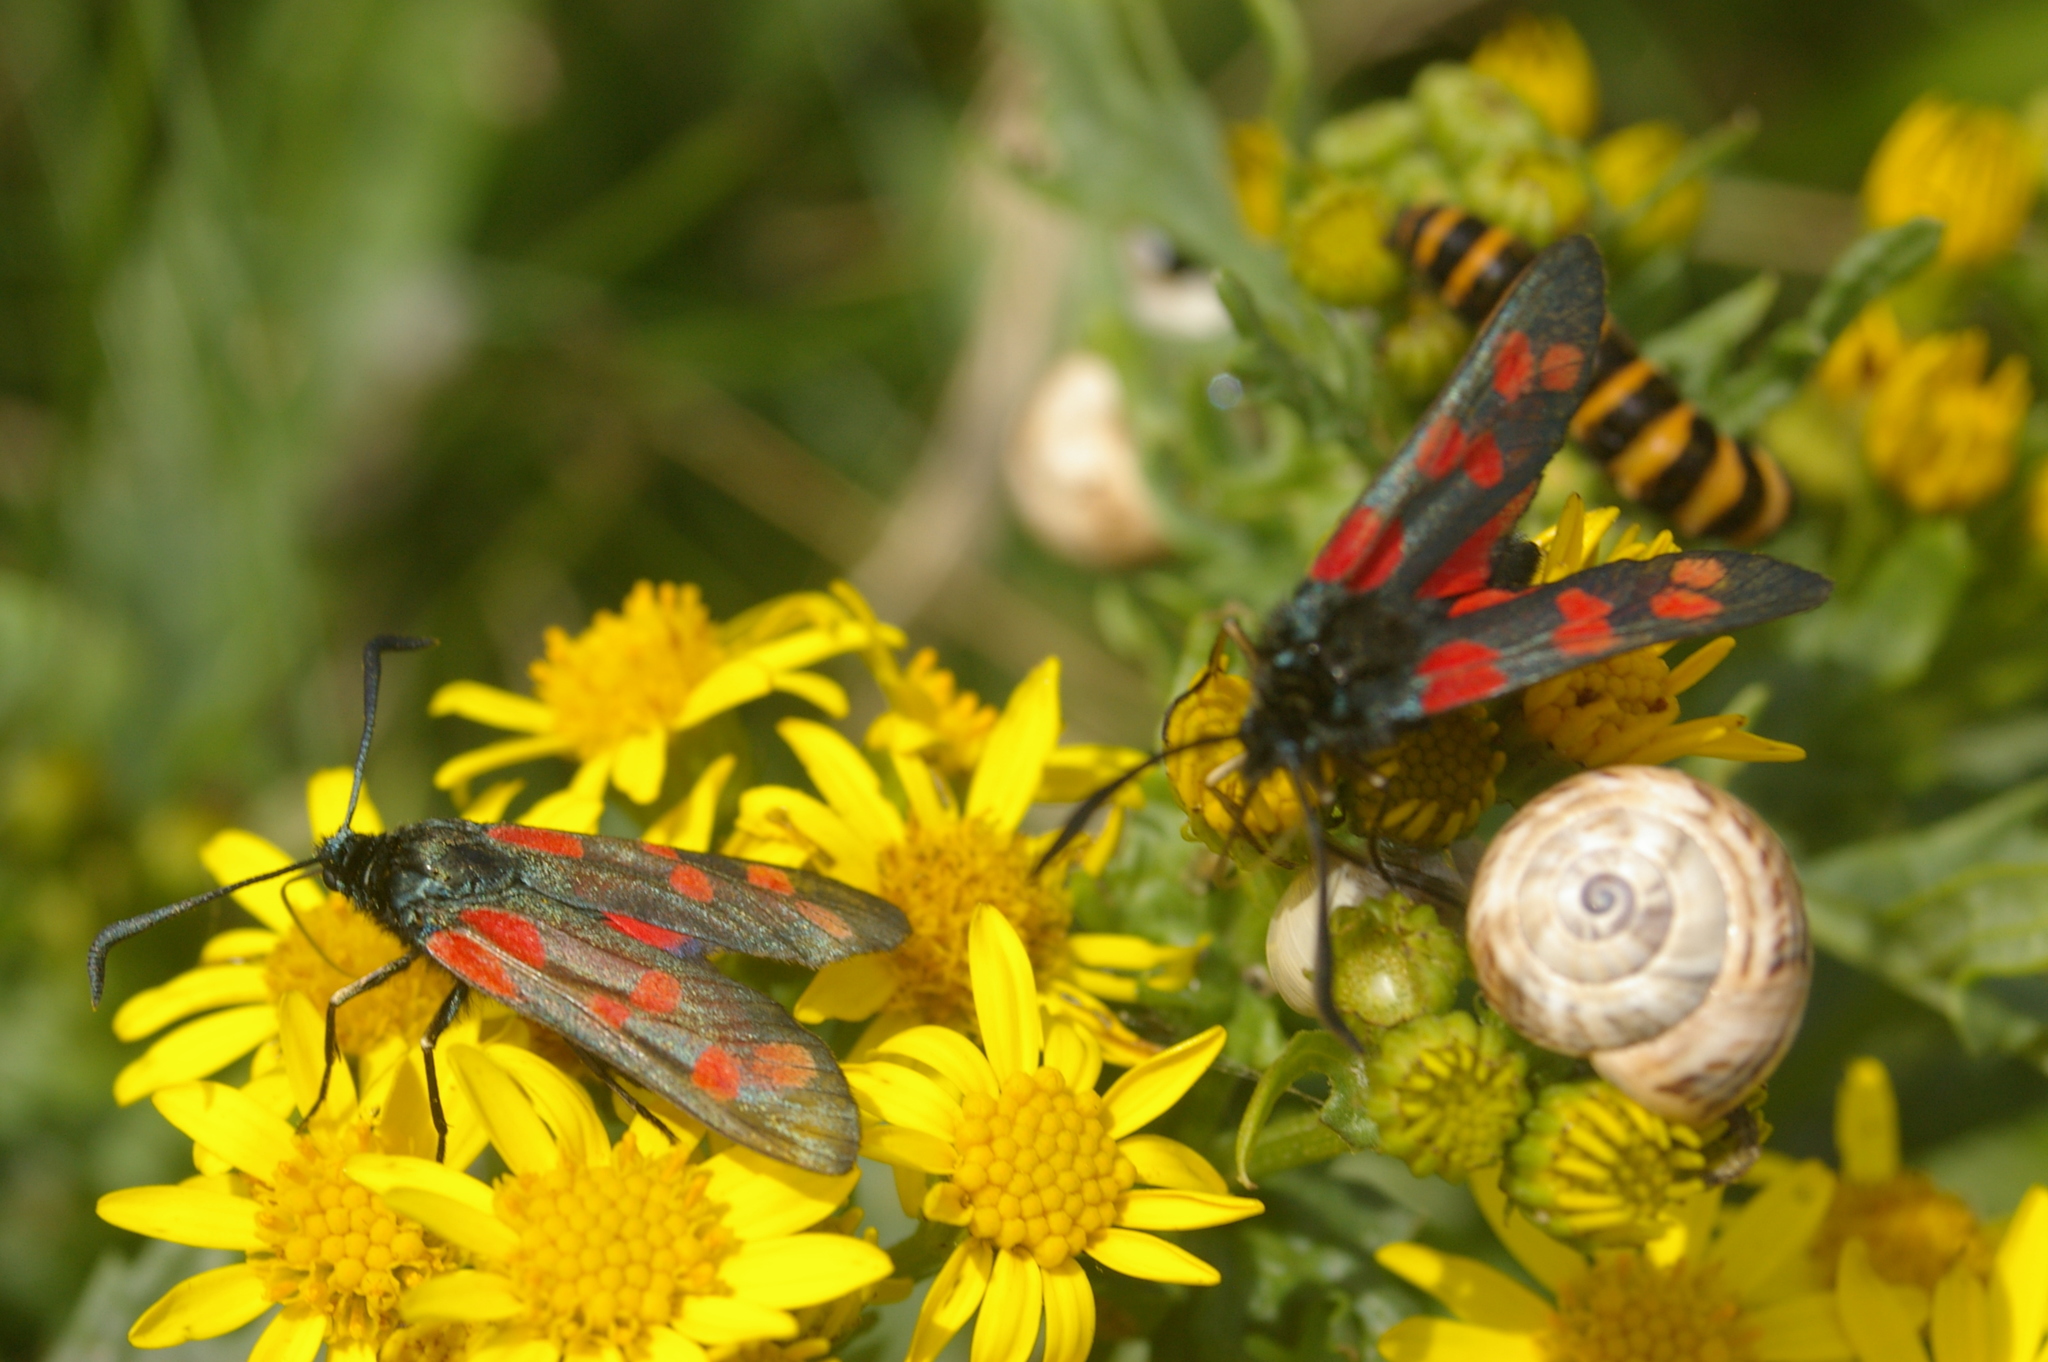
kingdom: Animalia
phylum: Arthropoda
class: Insecta
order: Lepidoptera
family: Zygaenidae
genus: Zygaena
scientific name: Zygaena filipendulae
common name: Six-spot burnet
